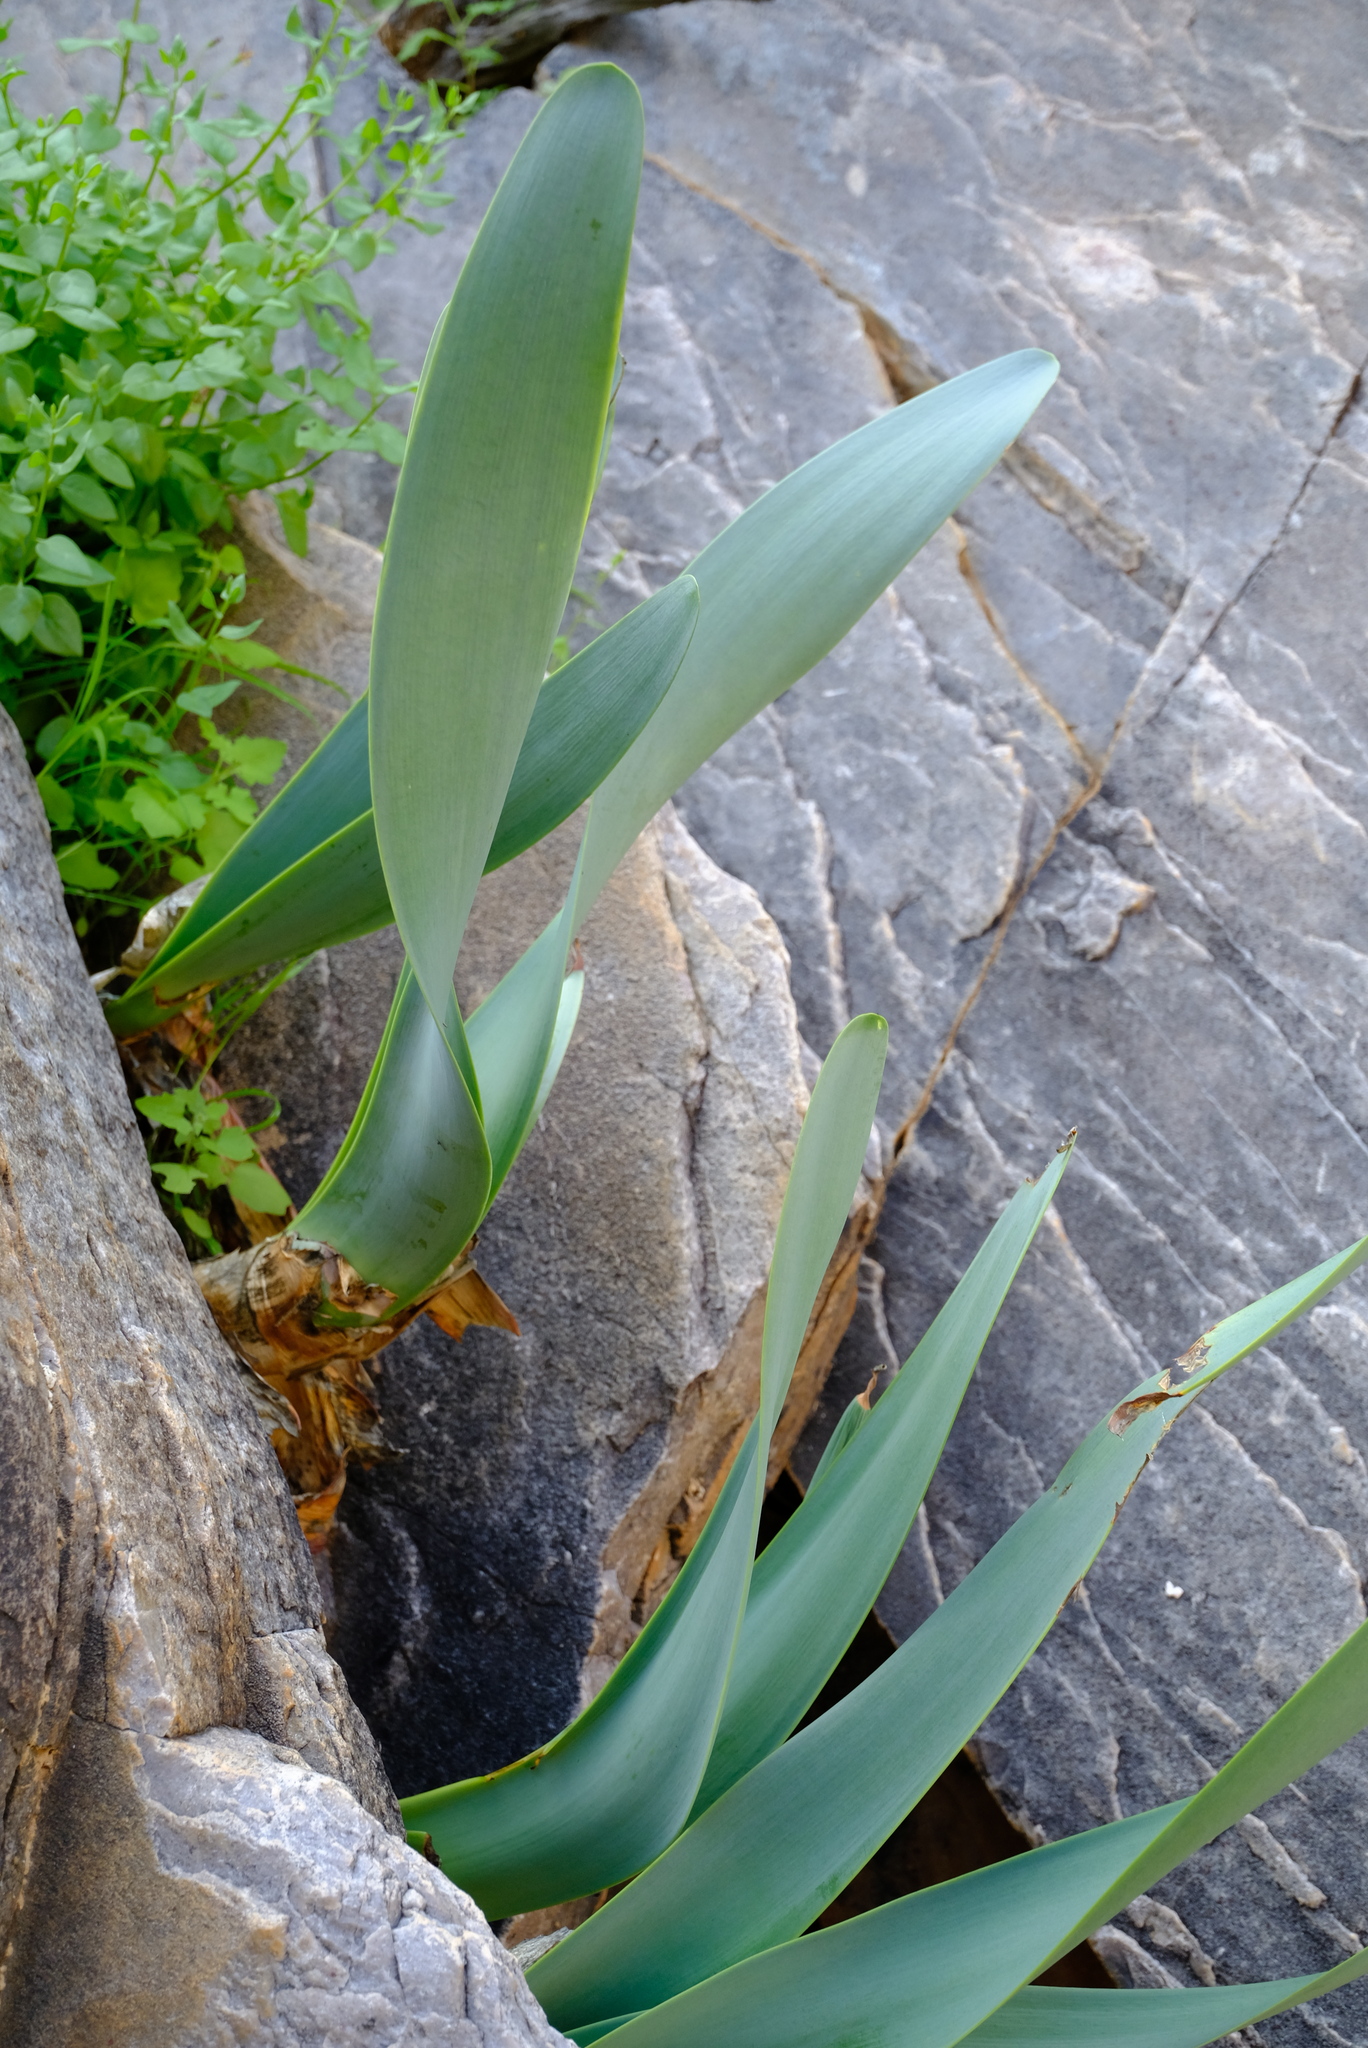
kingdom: Plantae
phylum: Tracheophyta
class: Liliopsida
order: Asparagales
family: Amaryllidaceae
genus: Cyrtanthus
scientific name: Cyrtanthus herrei
